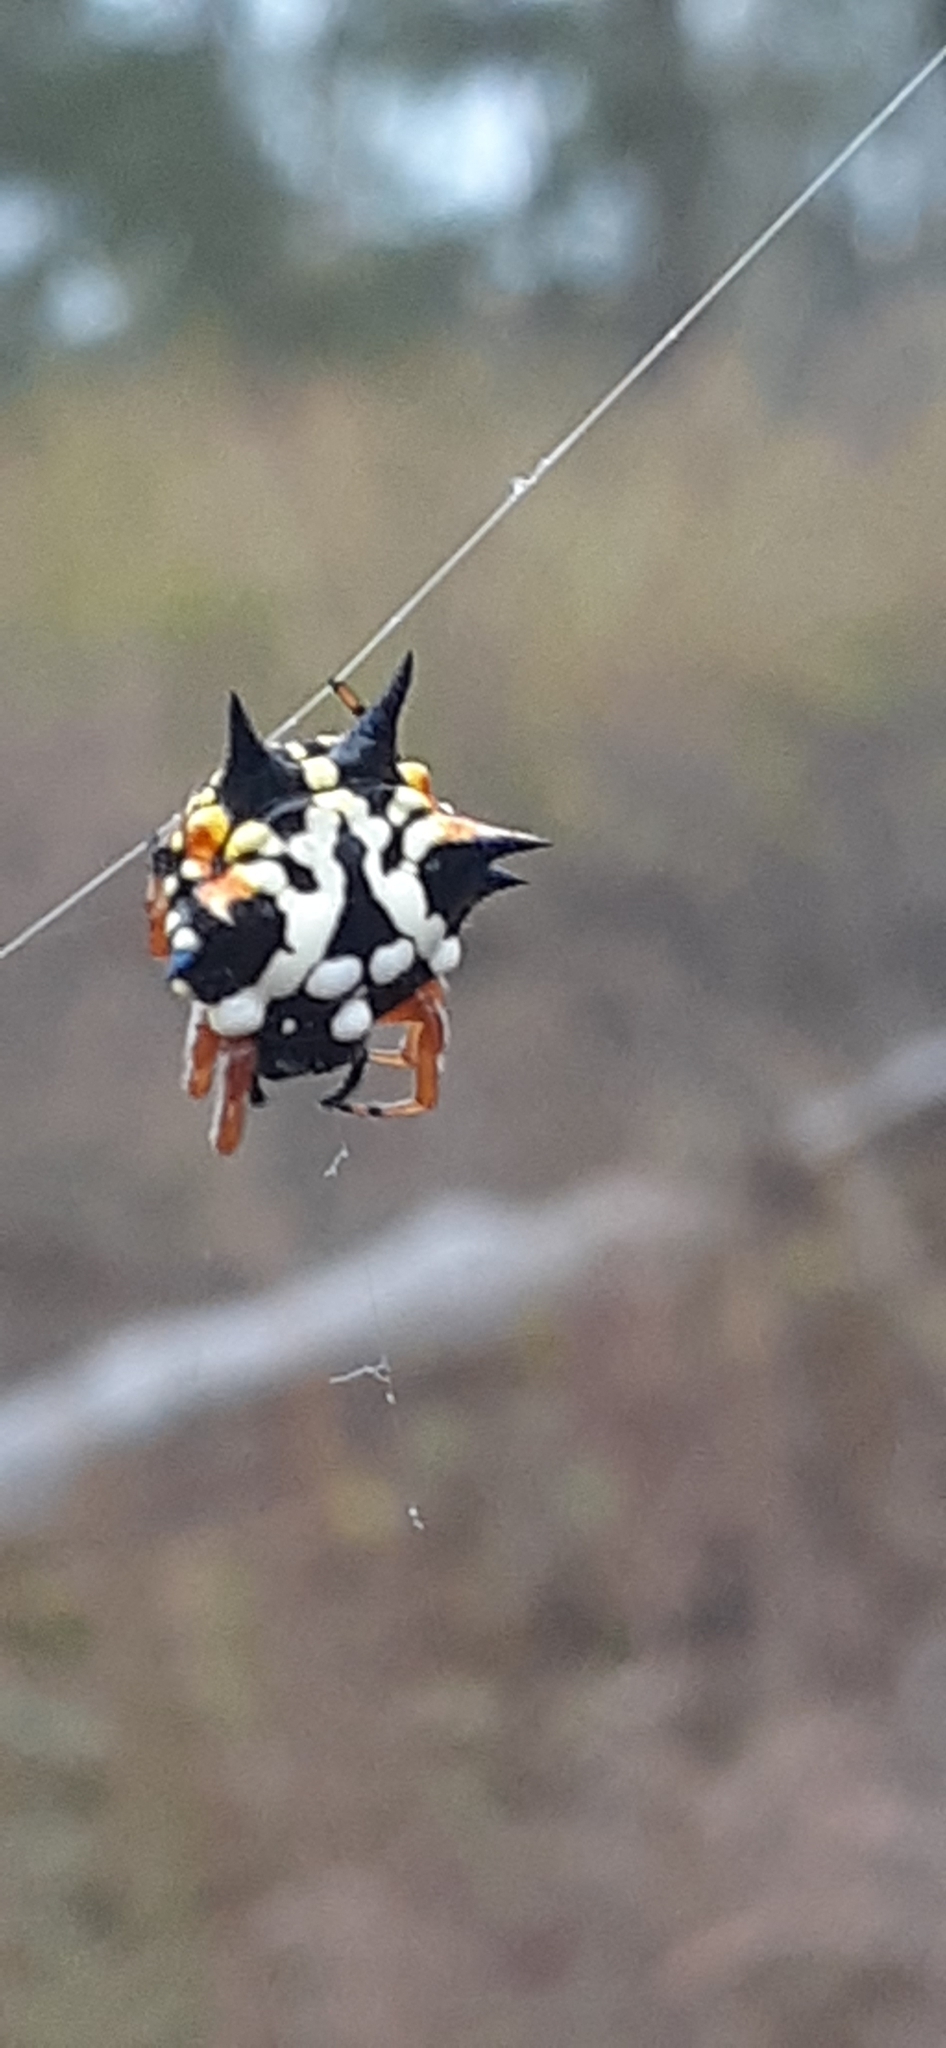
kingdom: Animalia
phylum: Arthropoda
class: Arachnida
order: Araneae
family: Araneidae
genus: Austracantha
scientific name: Austracantha minax
